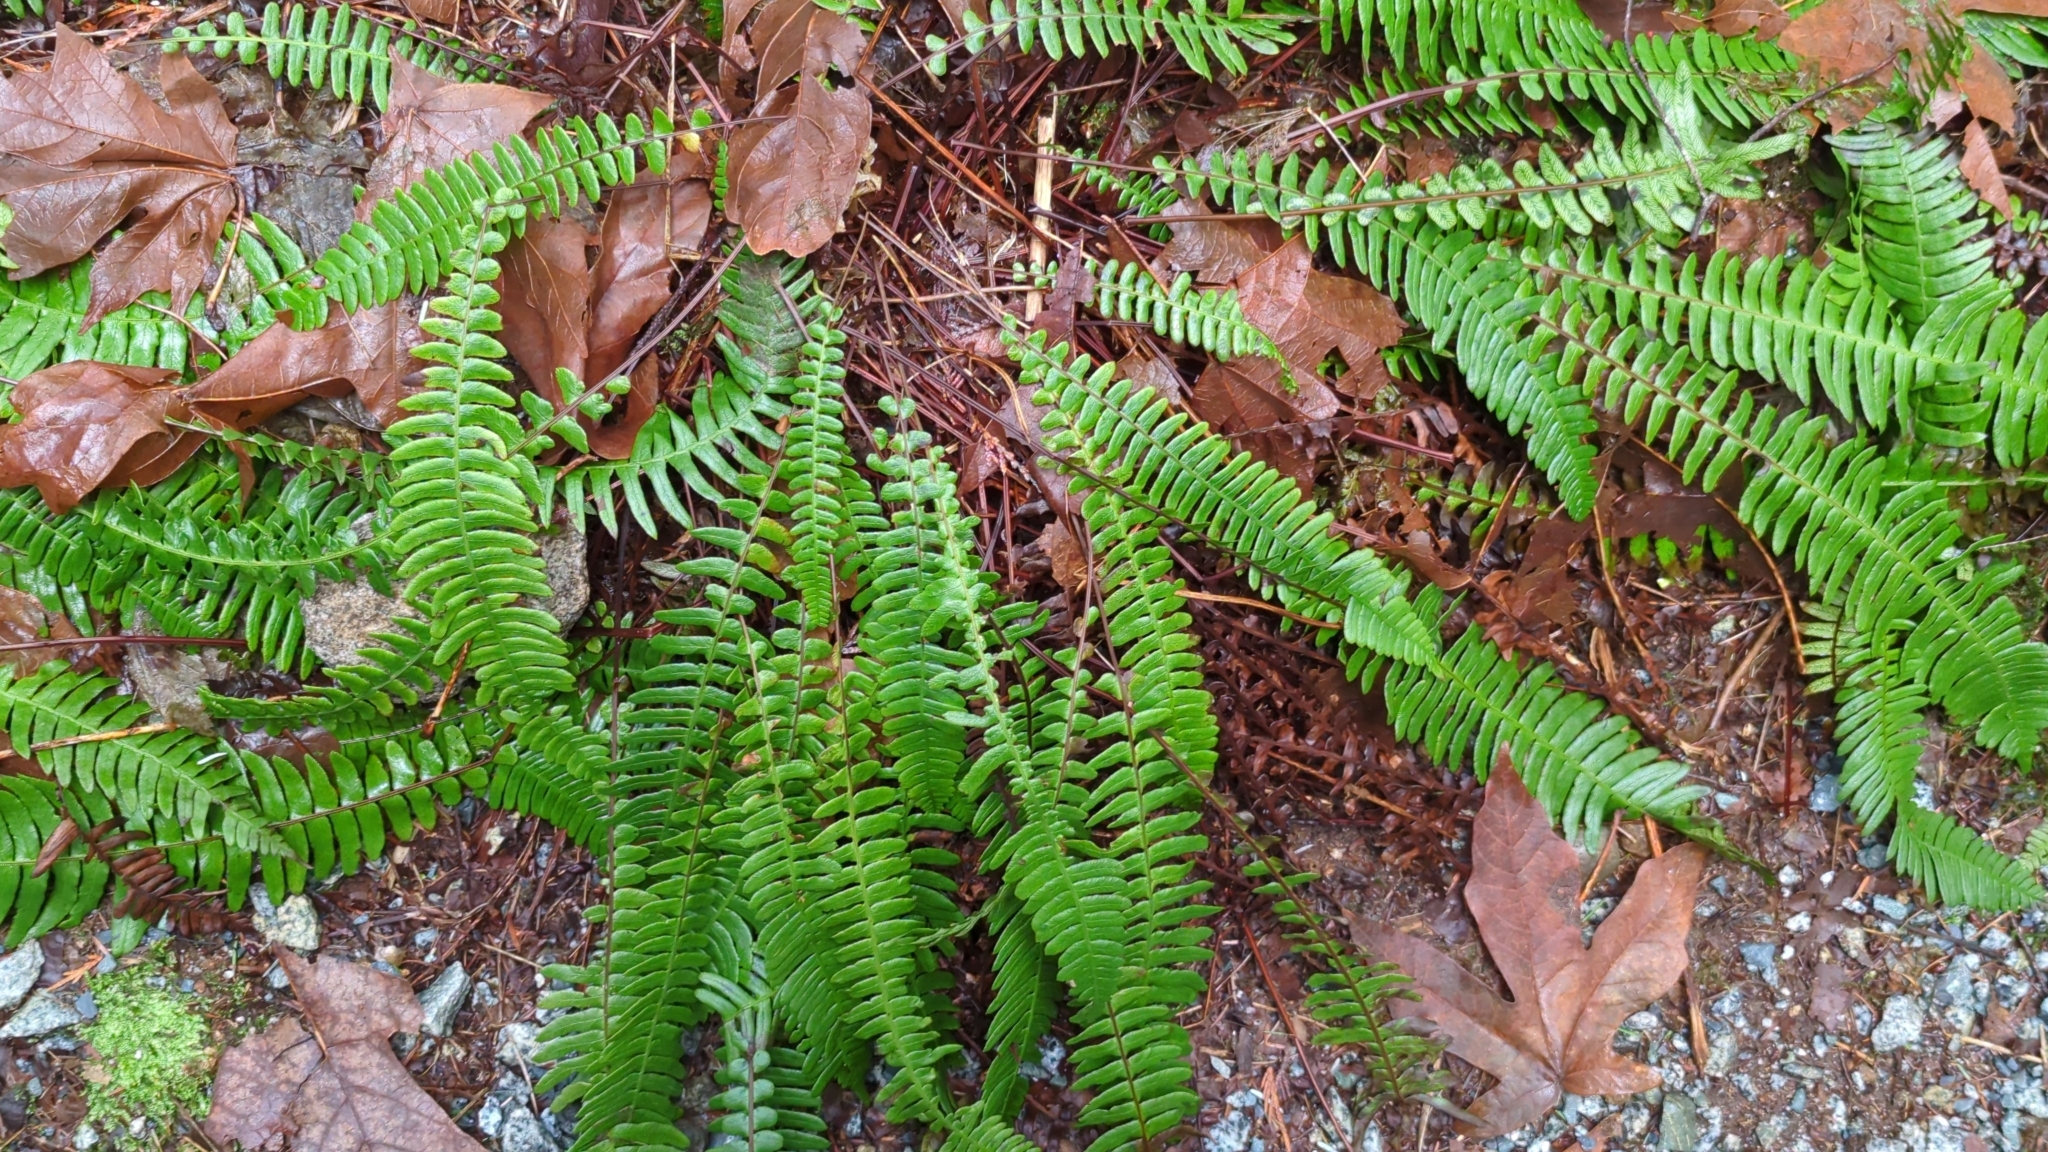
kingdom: Plantae
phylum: Tracheophyta
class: Polypodiopsida
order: Polypodiales
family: Blechnaceae
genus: Struthiopteris
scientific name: Struthiopteris spicant
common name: Deer fern
